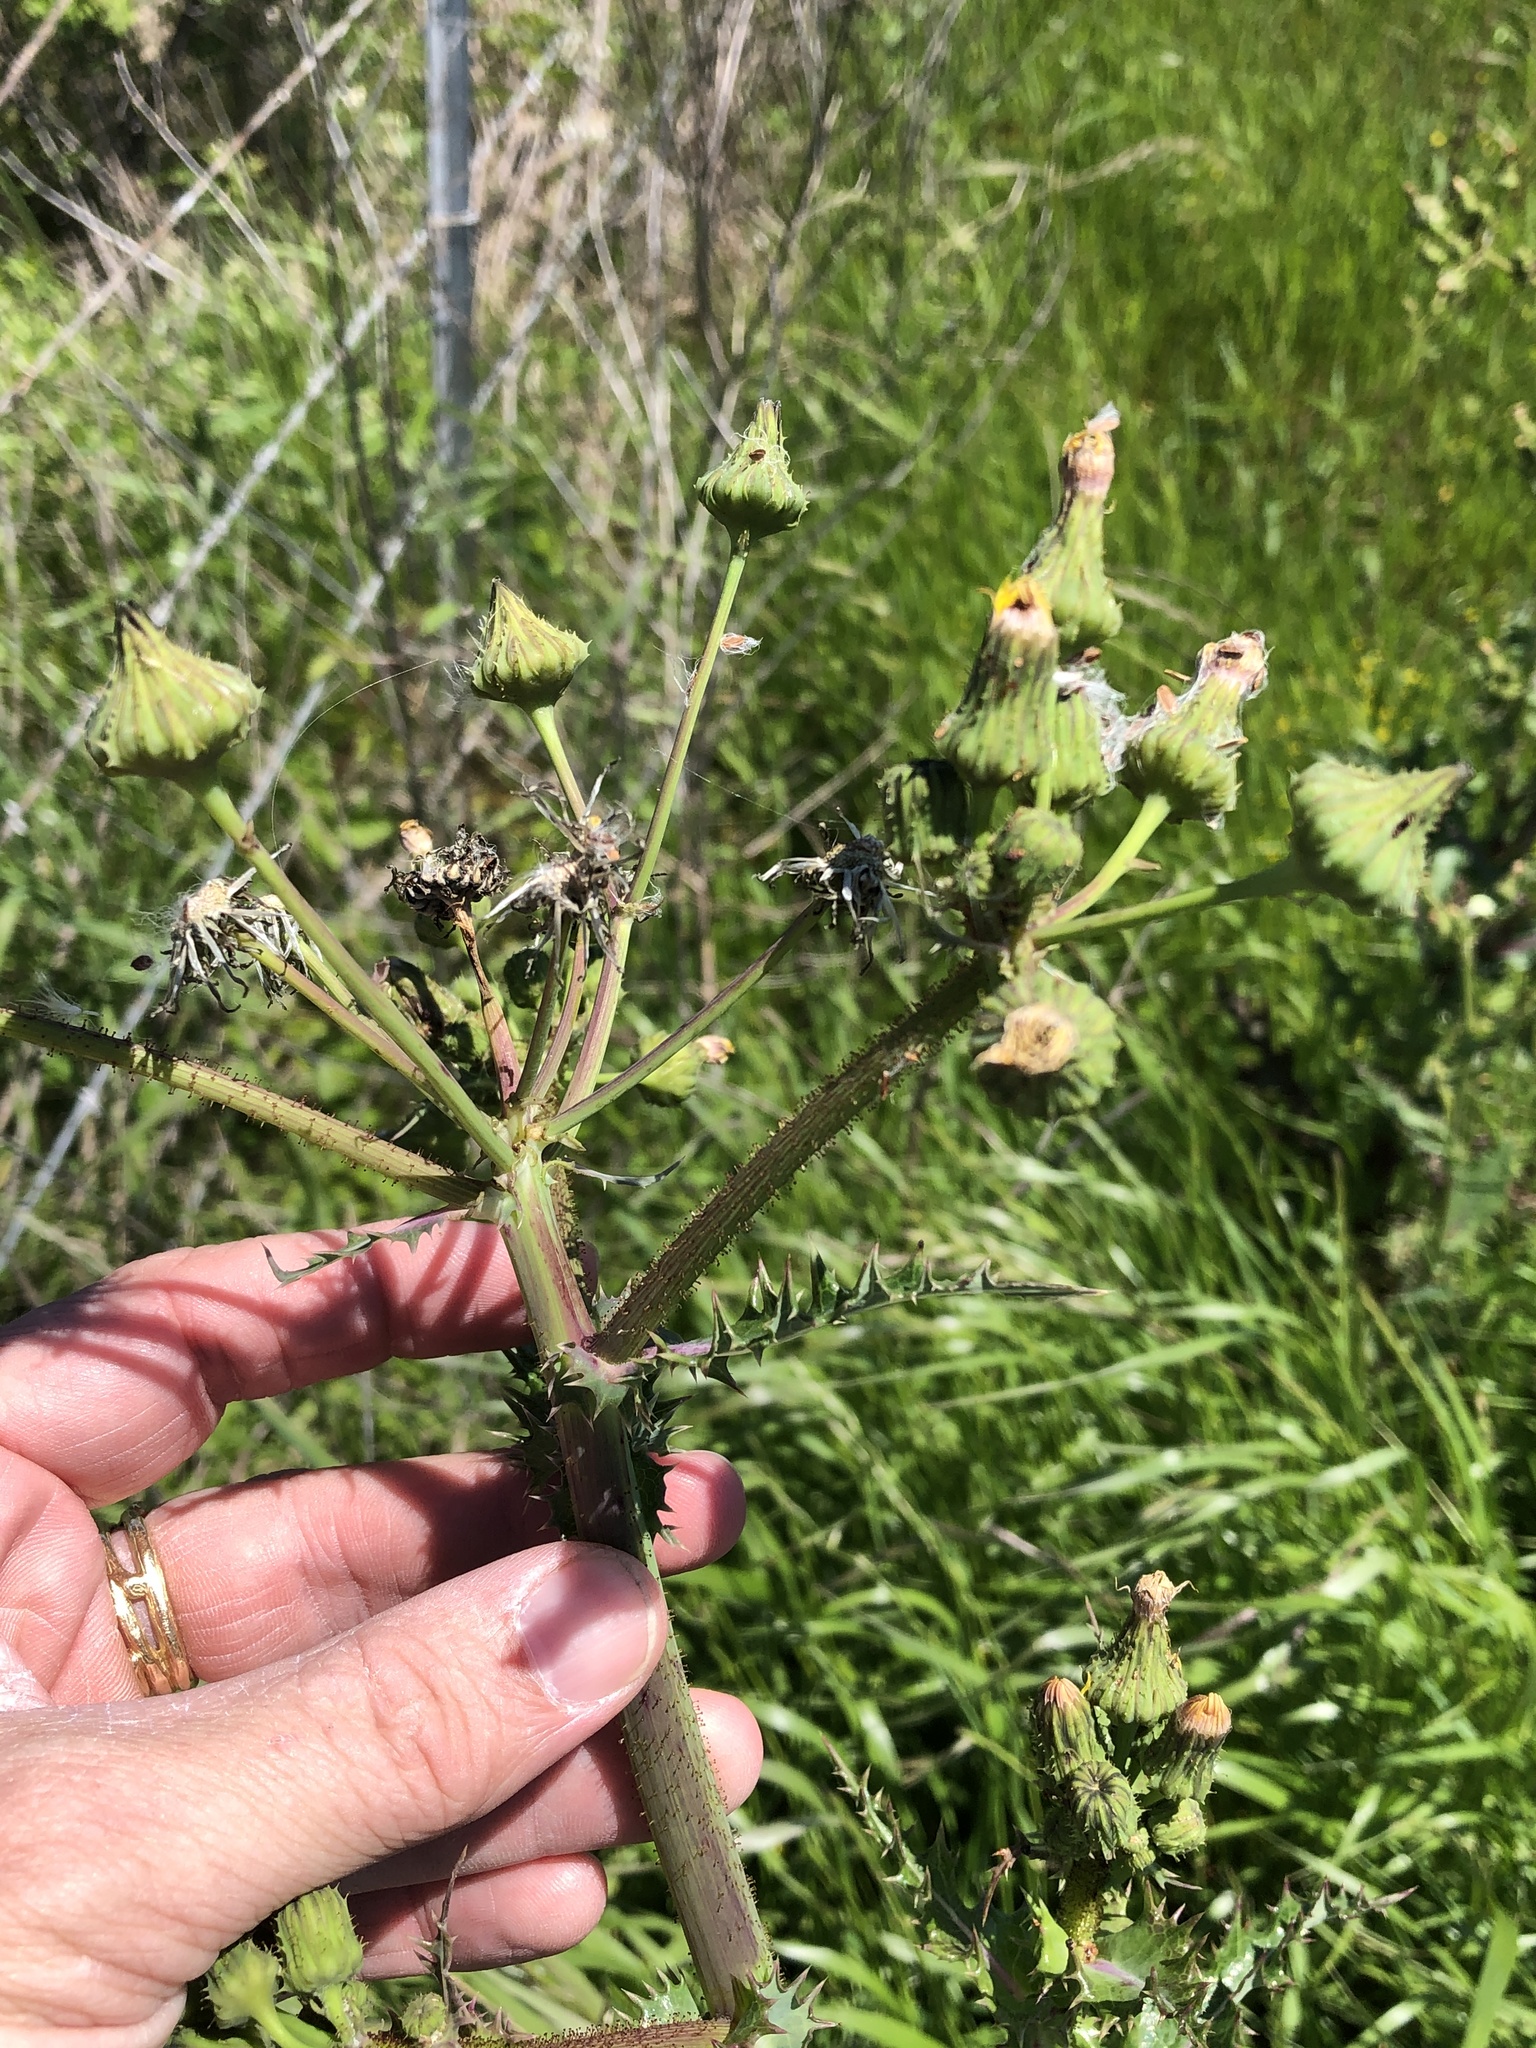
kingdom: Plantae
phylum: Tracheophyta
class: Magnoliopsida
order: Asterales
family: Asteraceae
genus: Sonchus
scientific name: Sonchus asper
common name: Prickly sow-thistle
